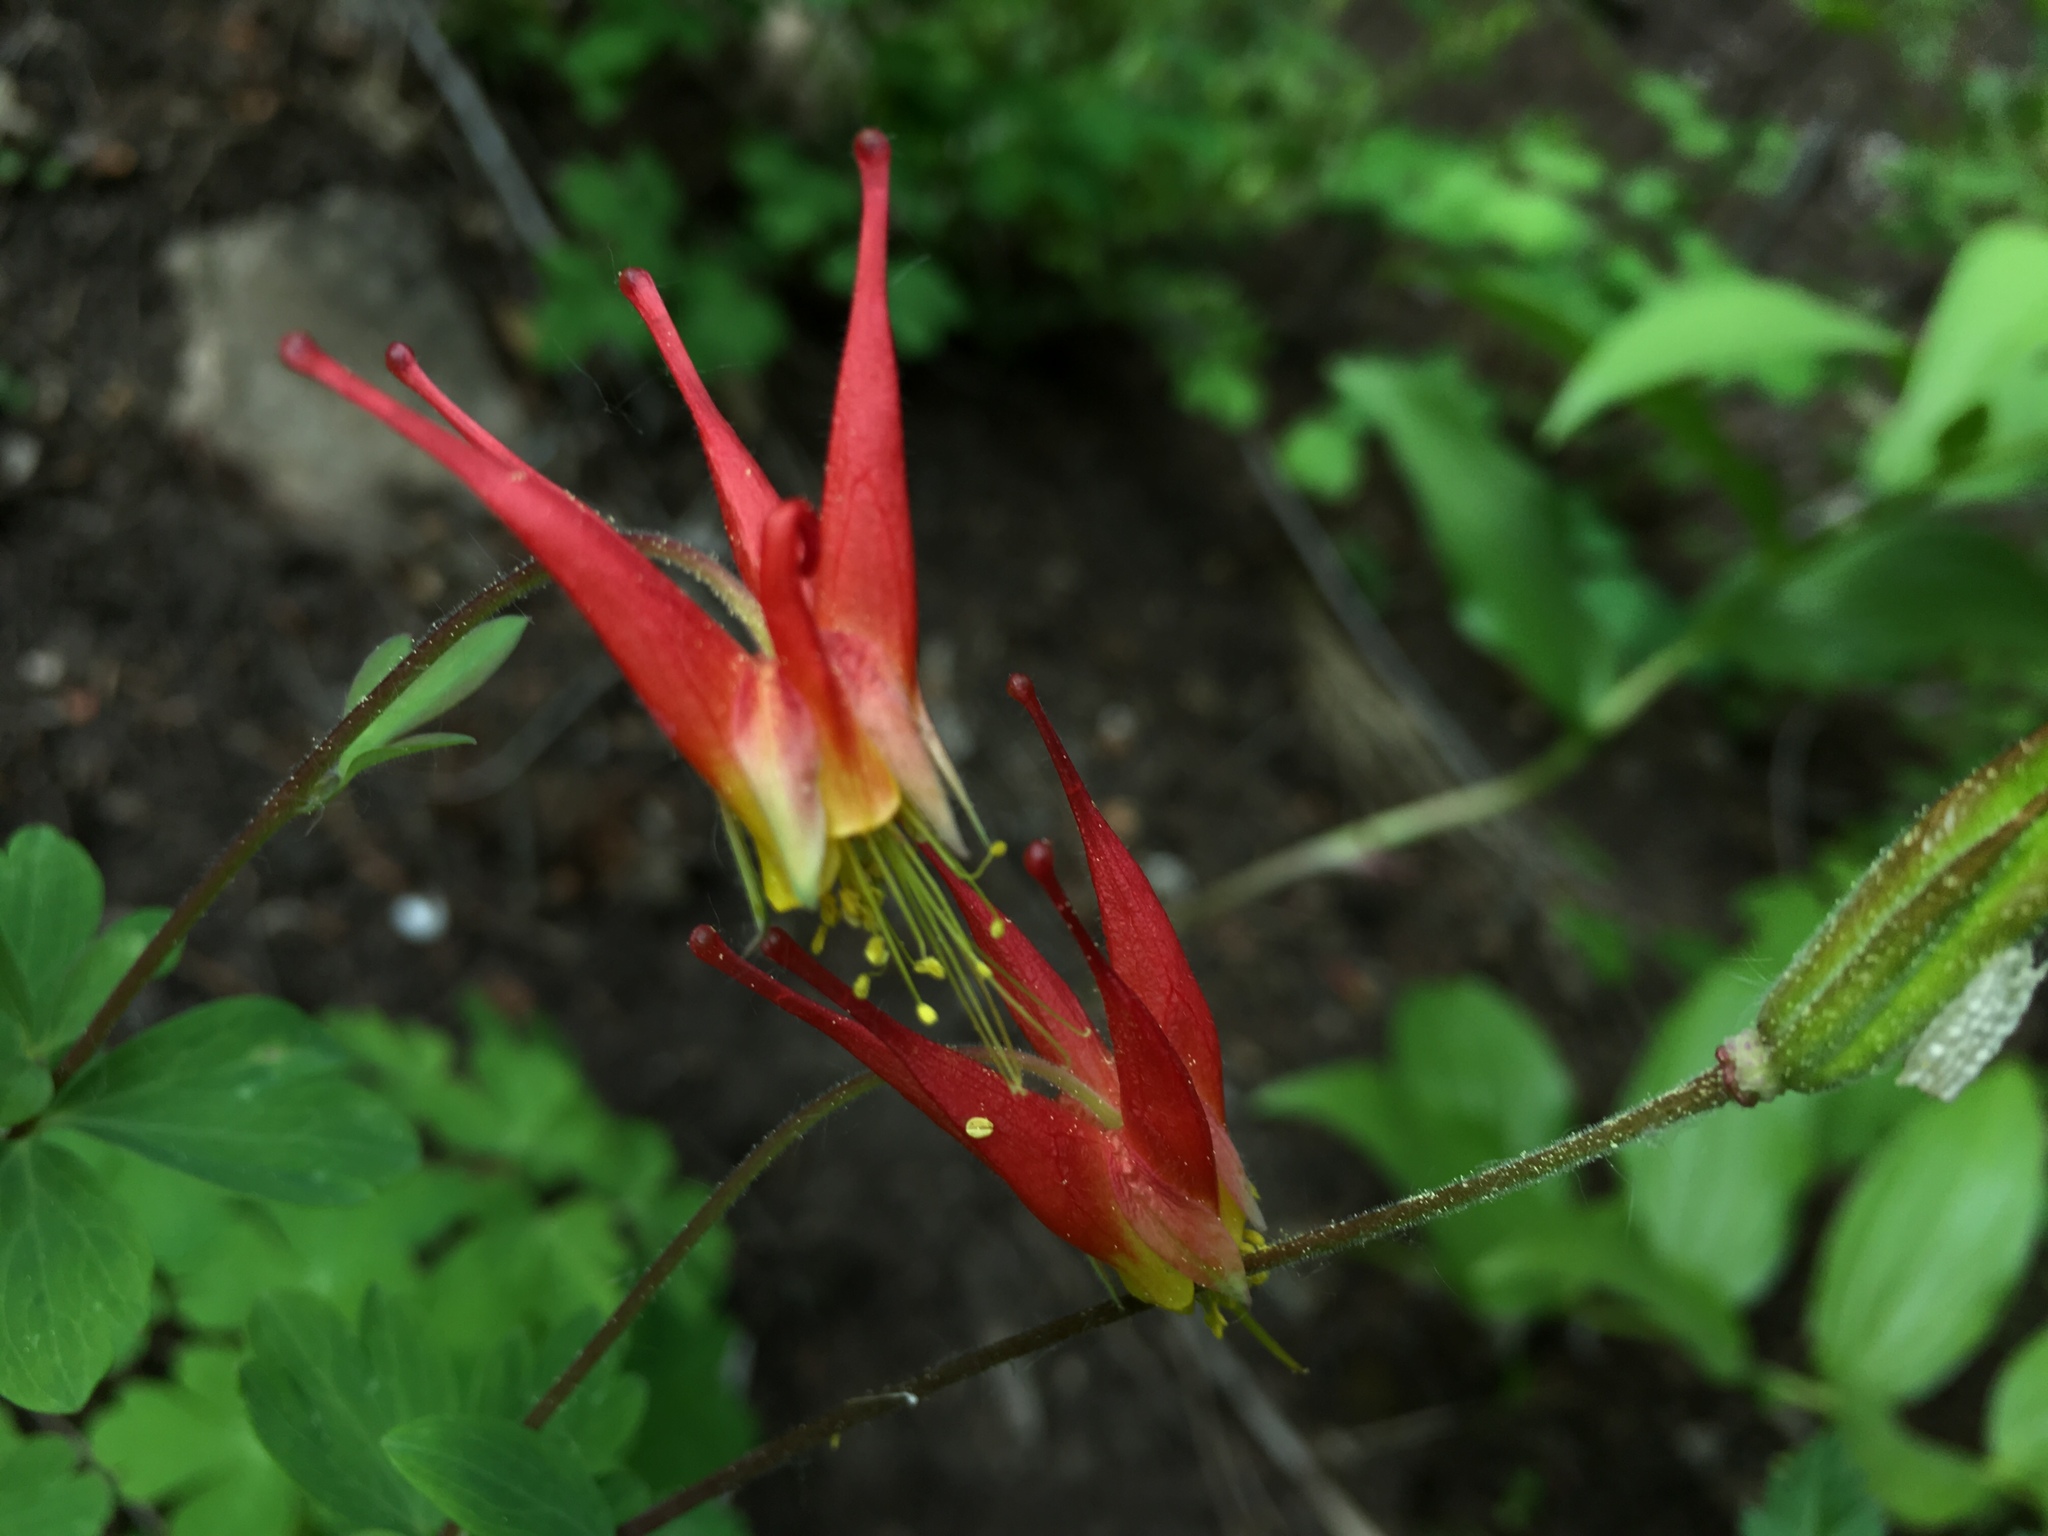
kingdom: Plantae
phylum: Tracheophyta
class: Magnoliopsida
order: Ranunculales
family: Ranunculaceae
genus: Aquilegia
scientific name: Aquilegia elegantula
